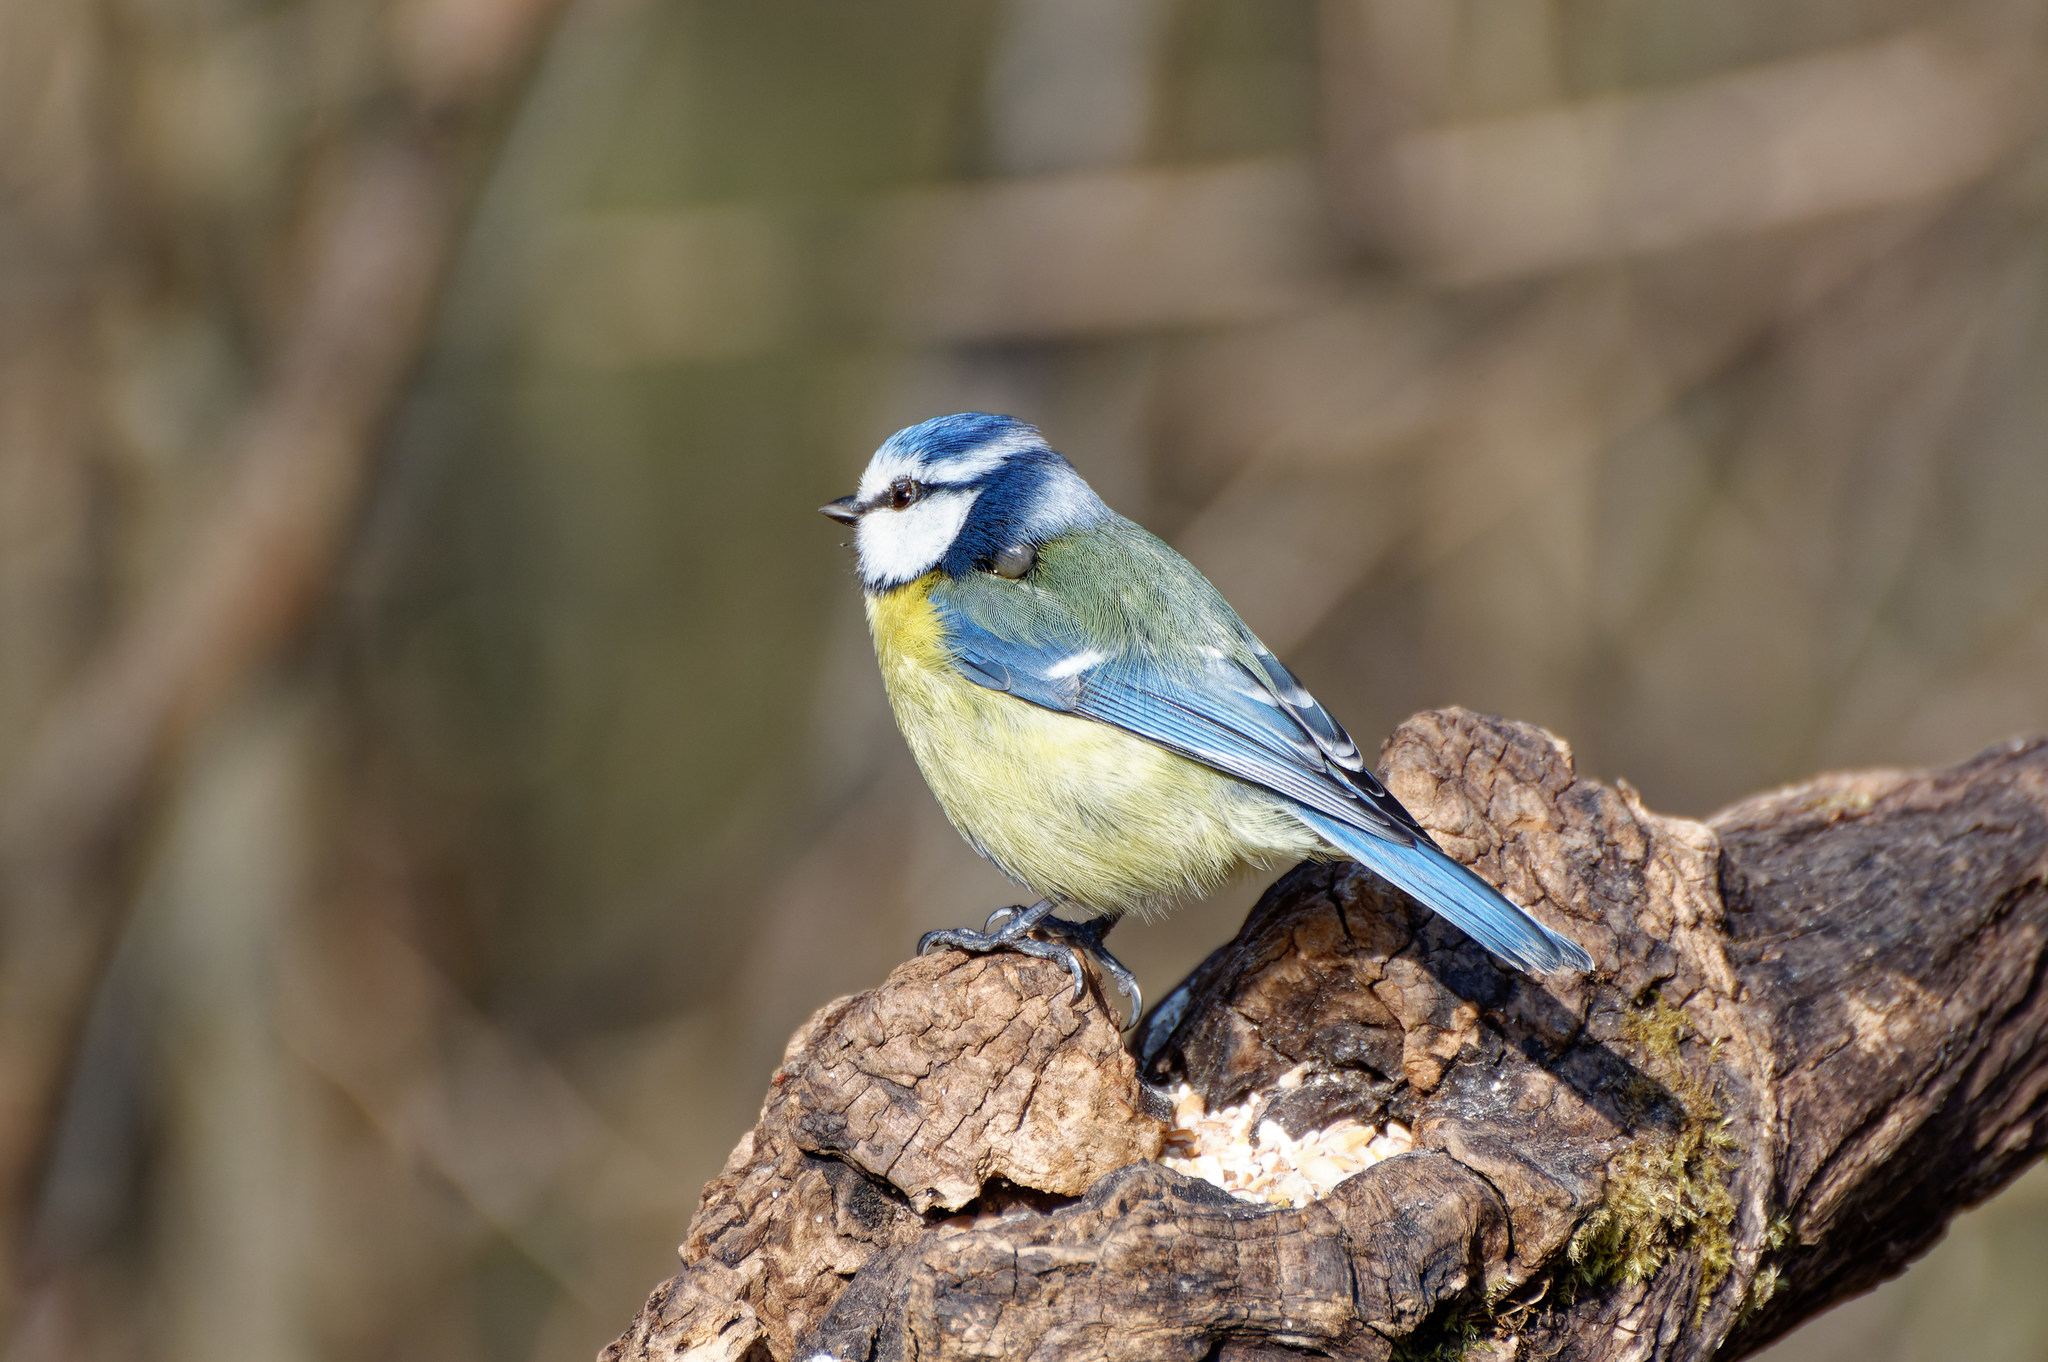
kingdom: Animalia
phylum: Chordata
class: Aves
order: Passeriformes
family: Paridae
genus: Cyanistes
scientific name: Cyanistes caeruleus
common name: Eurasian blue tit
